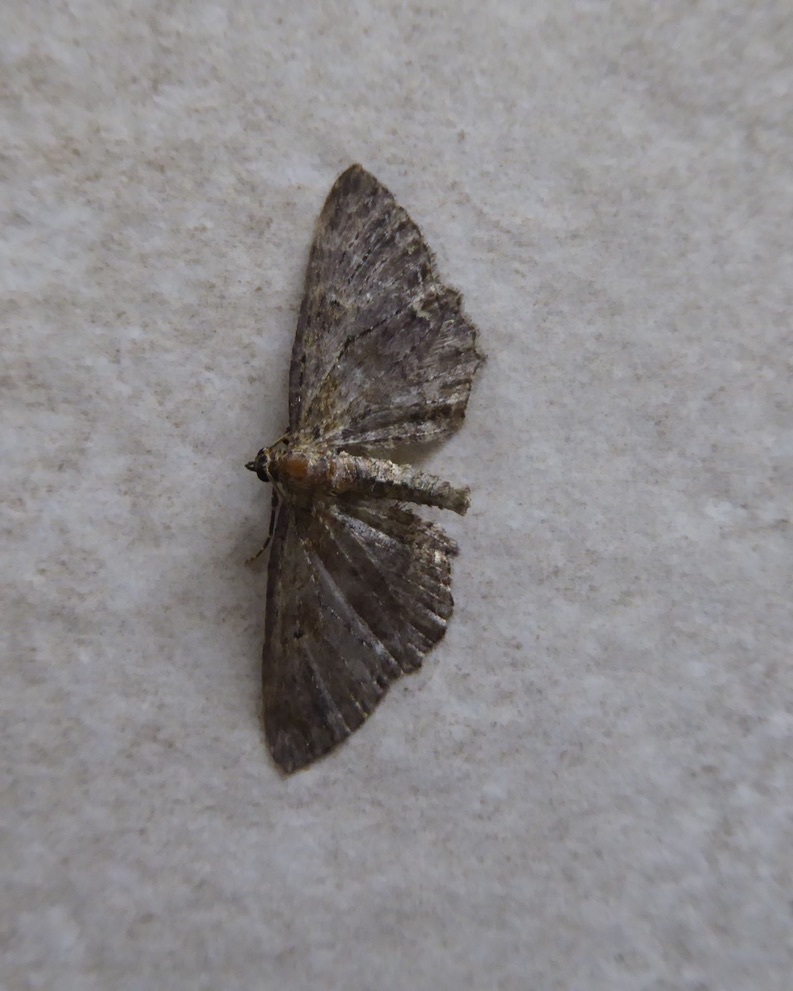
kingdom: Animalia
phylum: Arthropoda
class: Insecta
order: Lepidoptera
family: Geometridae
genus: Horisme
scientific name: Horisme scorteata
